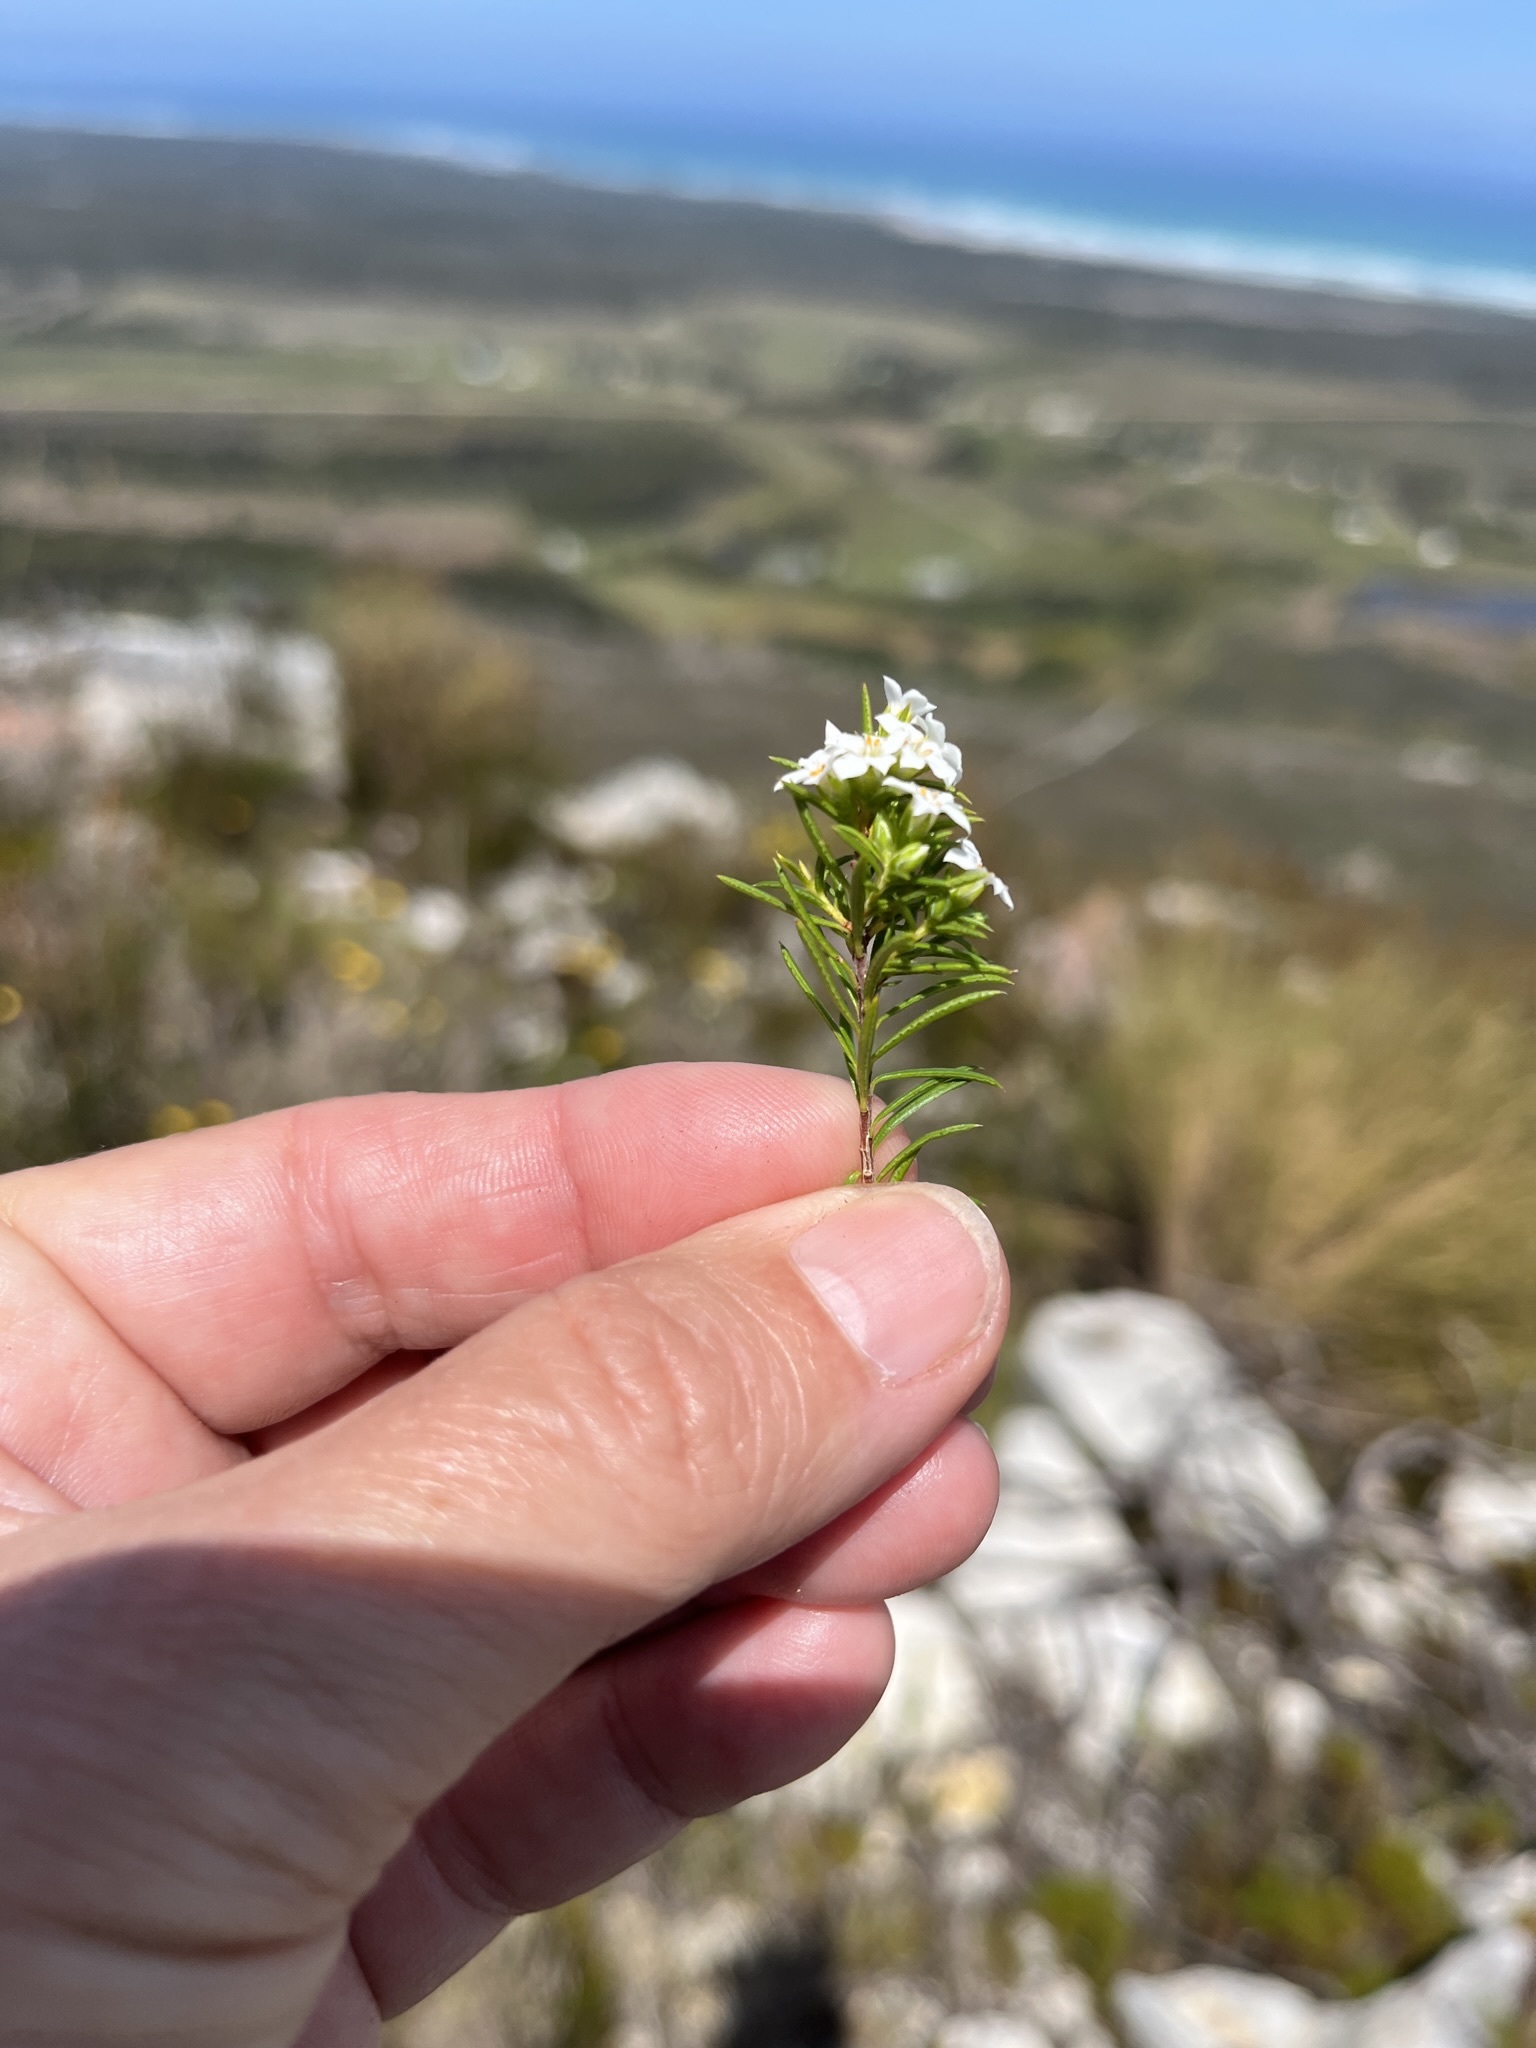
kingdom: Plantae
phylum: Tracheophyta
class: Magnoliopsida
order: Sapindales
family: Rutaceae
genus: Coleonema
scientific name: Coleonema album
